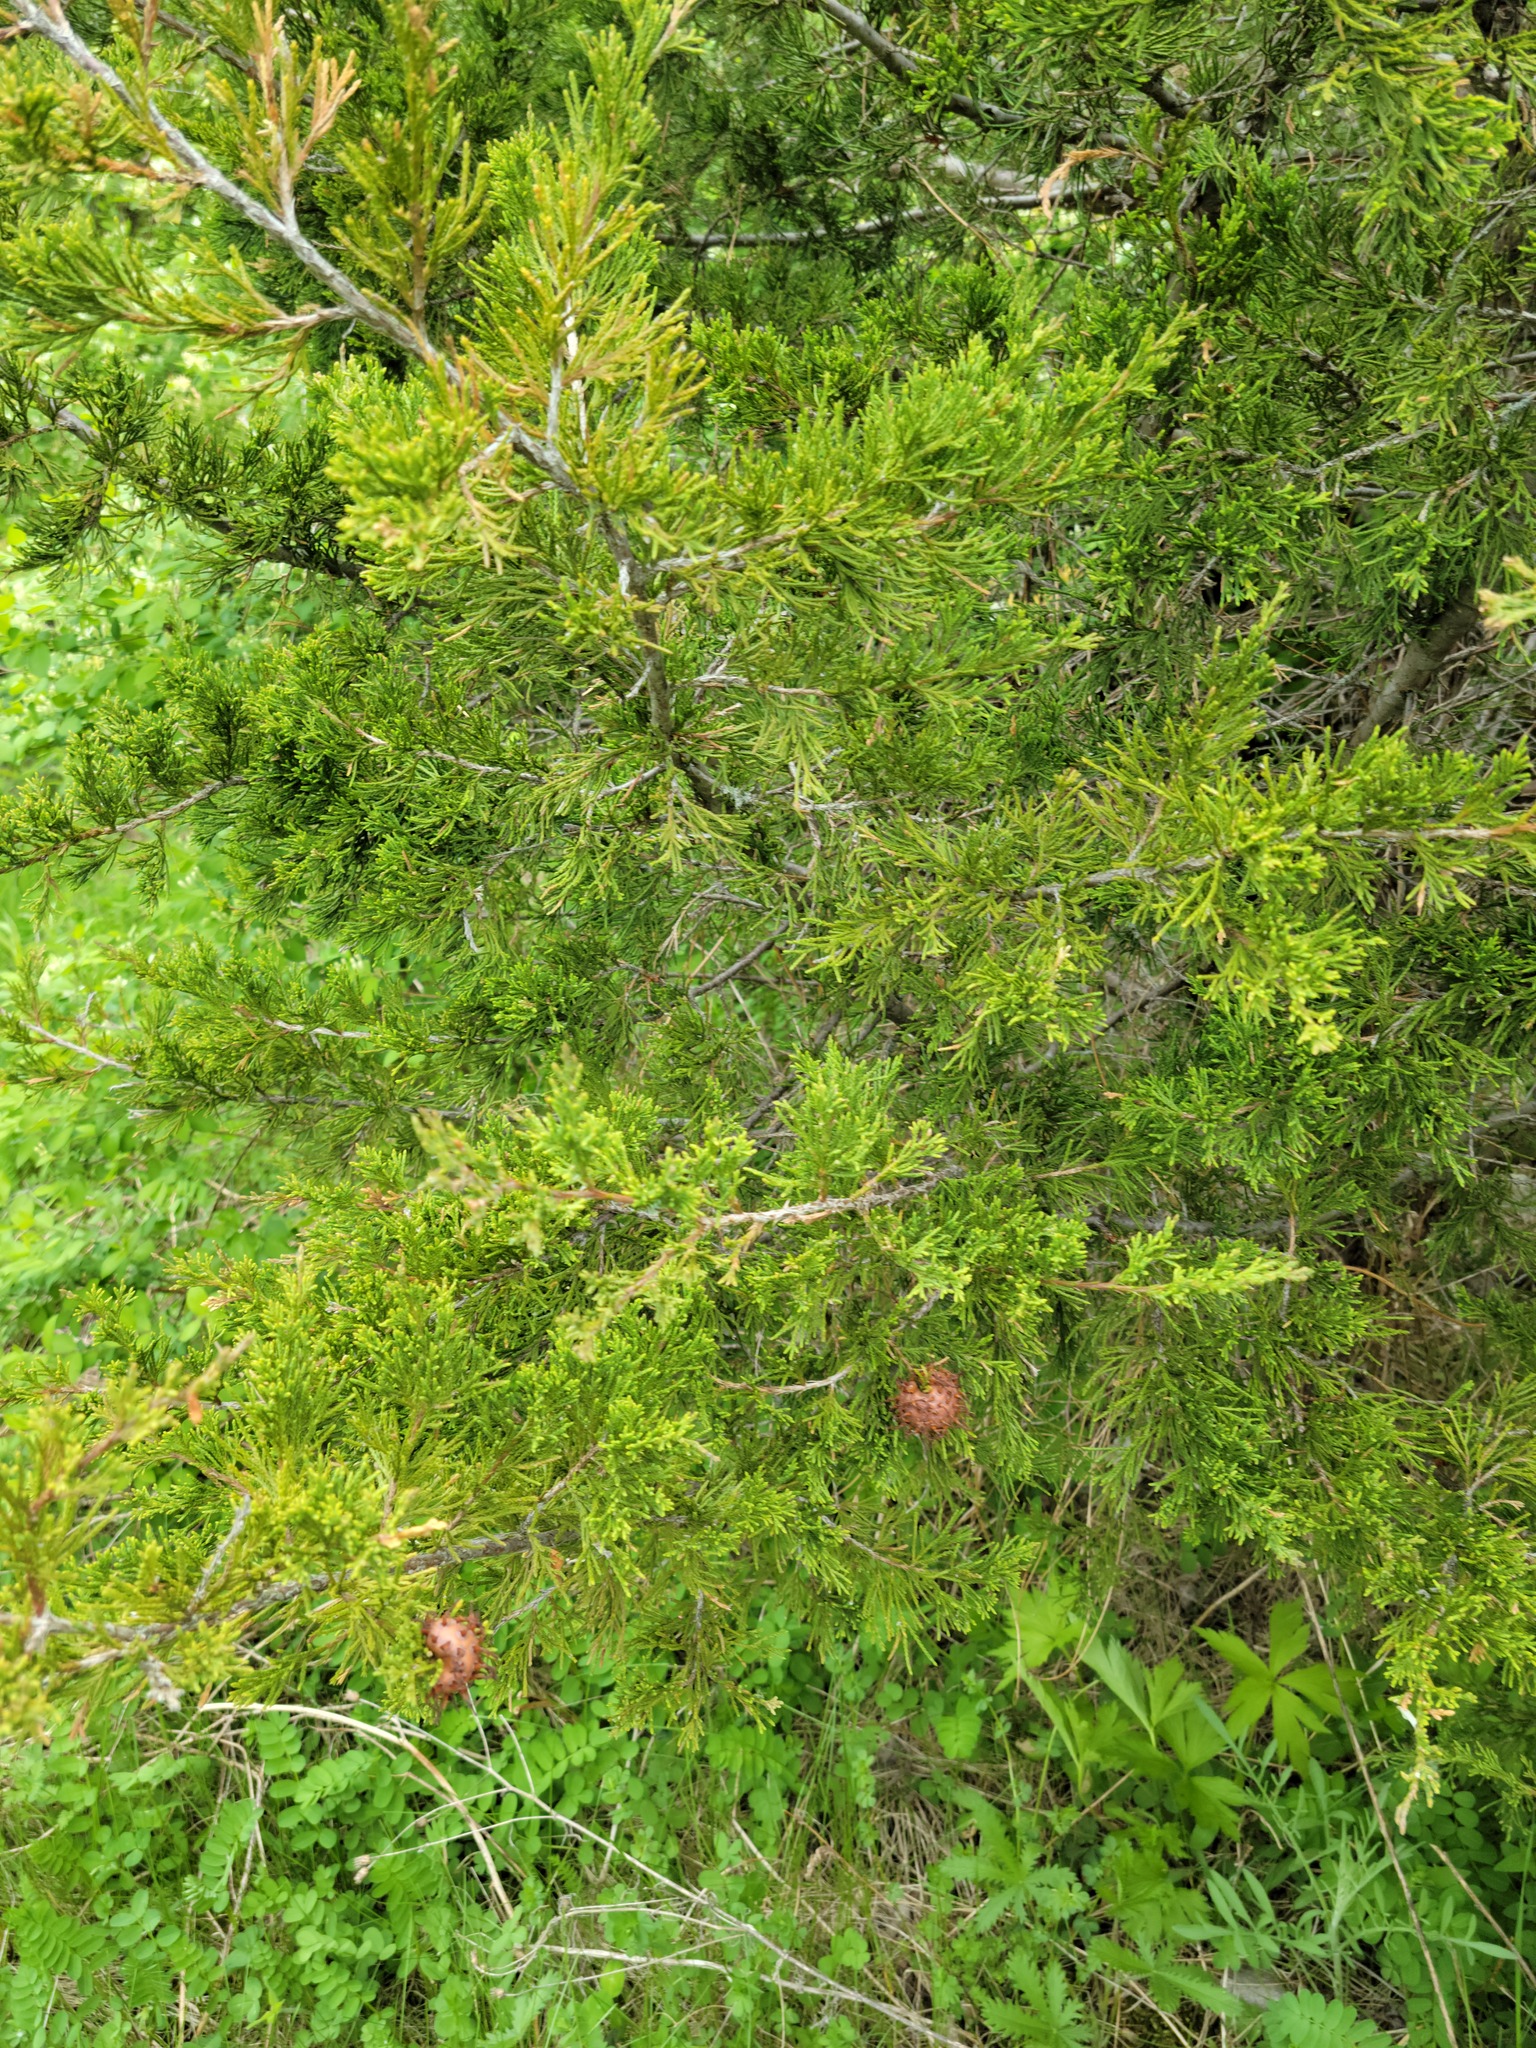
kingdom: Fungi
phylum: Basidiomycota
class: Pucciniomycetes
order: Pucciniales
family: Gymnosporangiaceae
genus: Gymnosporangium
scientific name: Gymnosporangium juniperi-virginianae
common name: Juniper-apple rust
